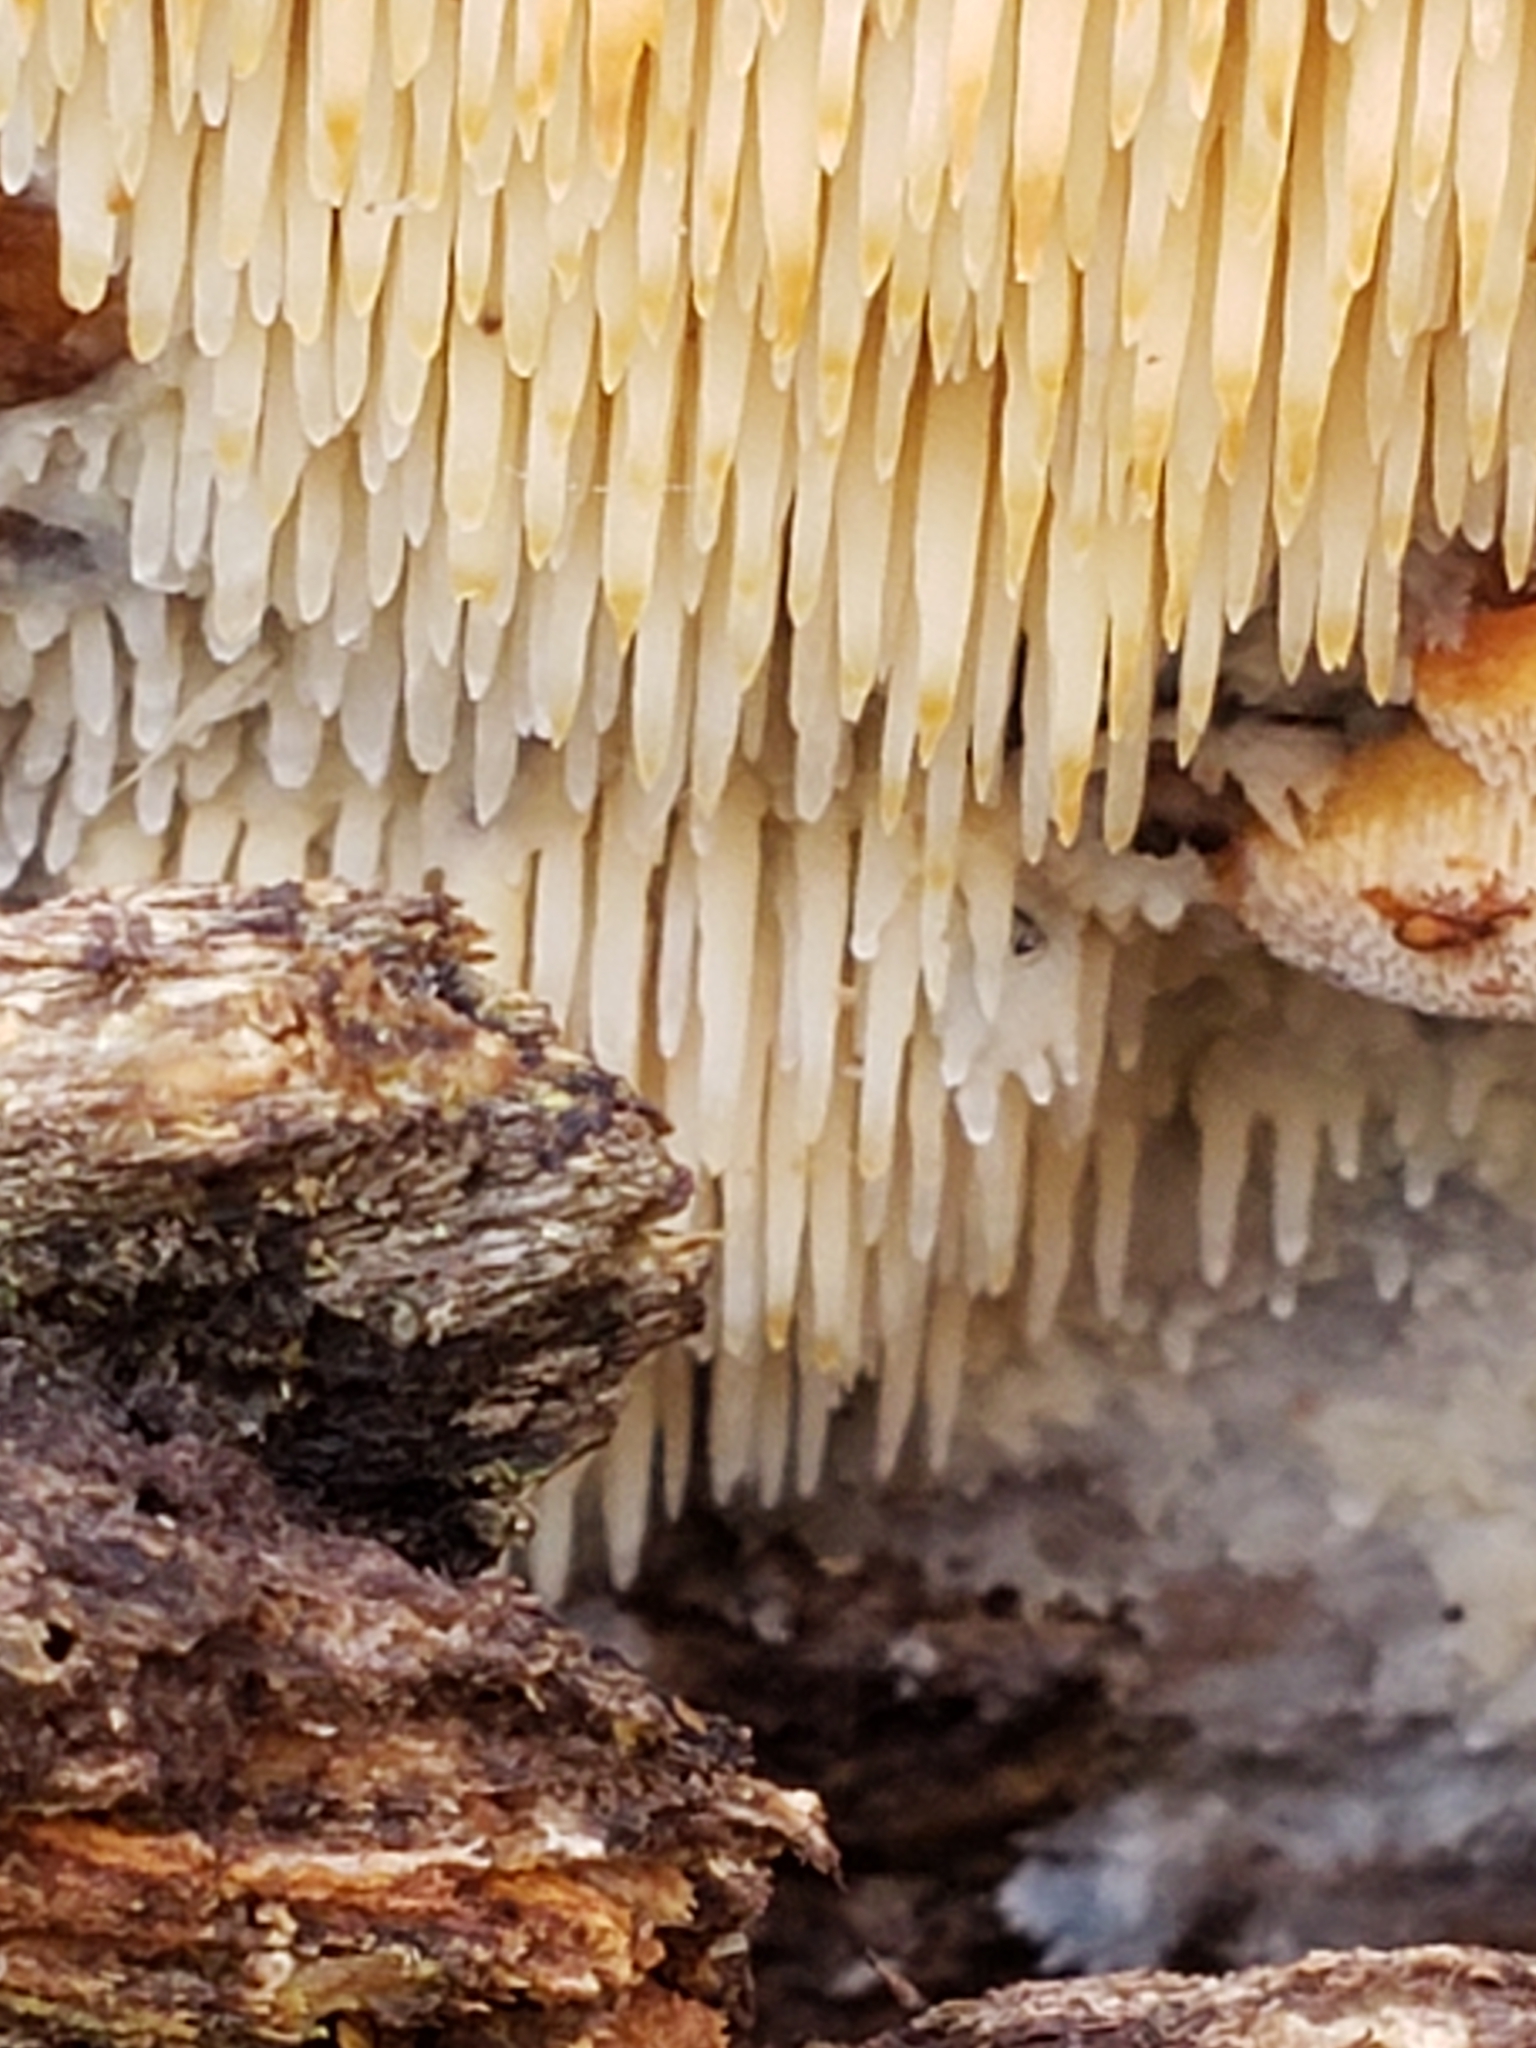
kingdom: Fungi
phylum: Basidiomycota
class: Agaricomycetes
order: Agaricales
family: Radulomycetaceae
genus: Radulomyces
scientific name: Radulomyces copelandii
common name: Asian beauty
